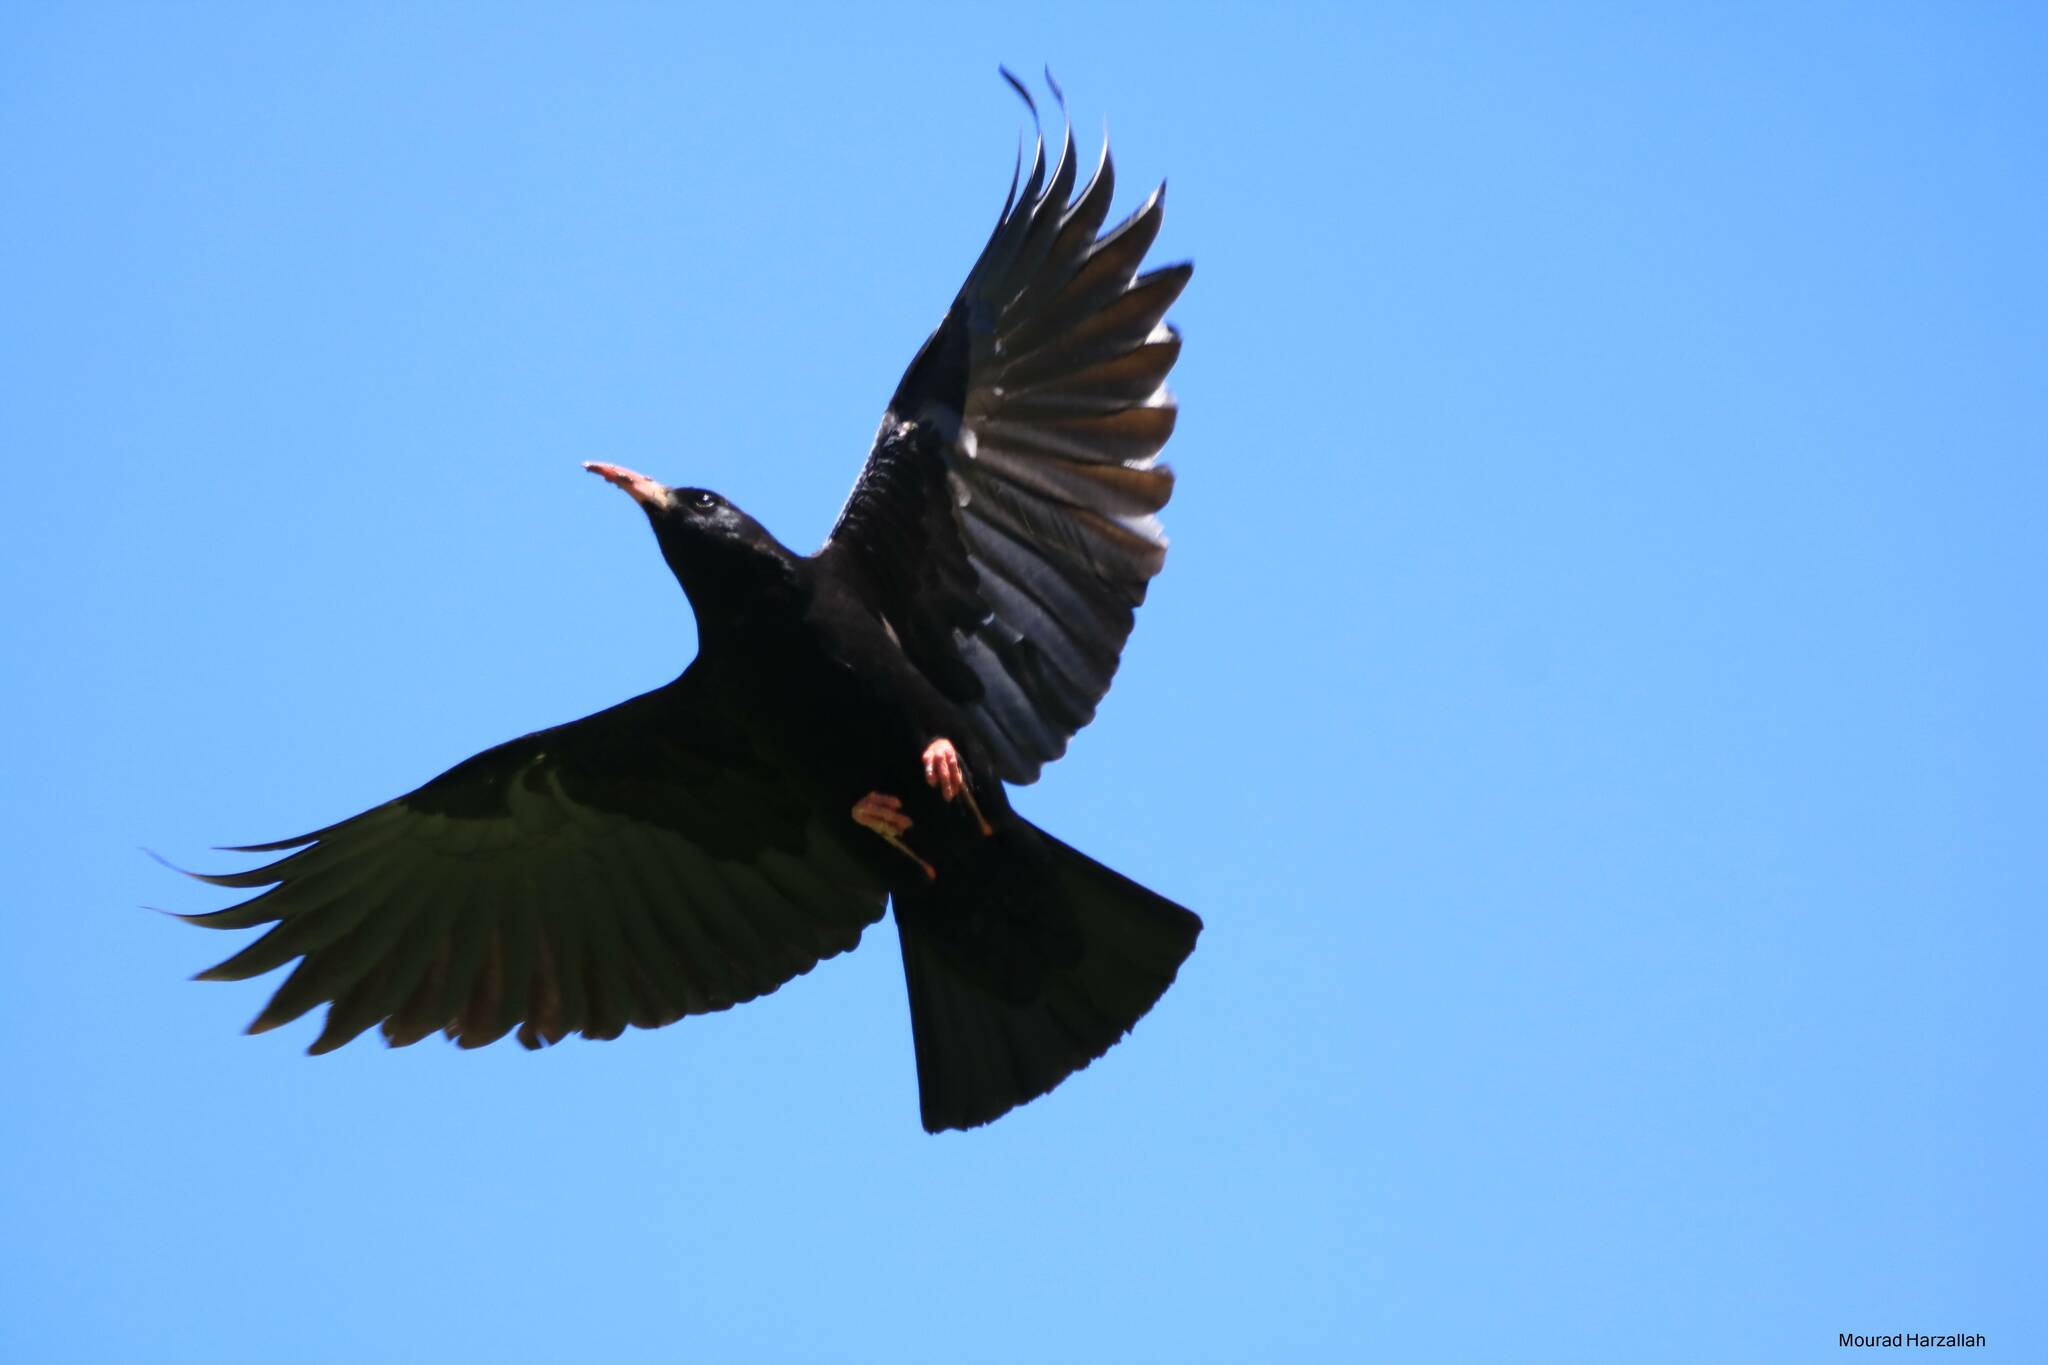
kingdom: Animalia
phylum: Chordata
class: Aves
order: Passeriformes
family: Corvidae
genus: Pyrrhocorax
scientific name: Pyrrhocorax pyrrhocorax
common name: Red-billed chough
